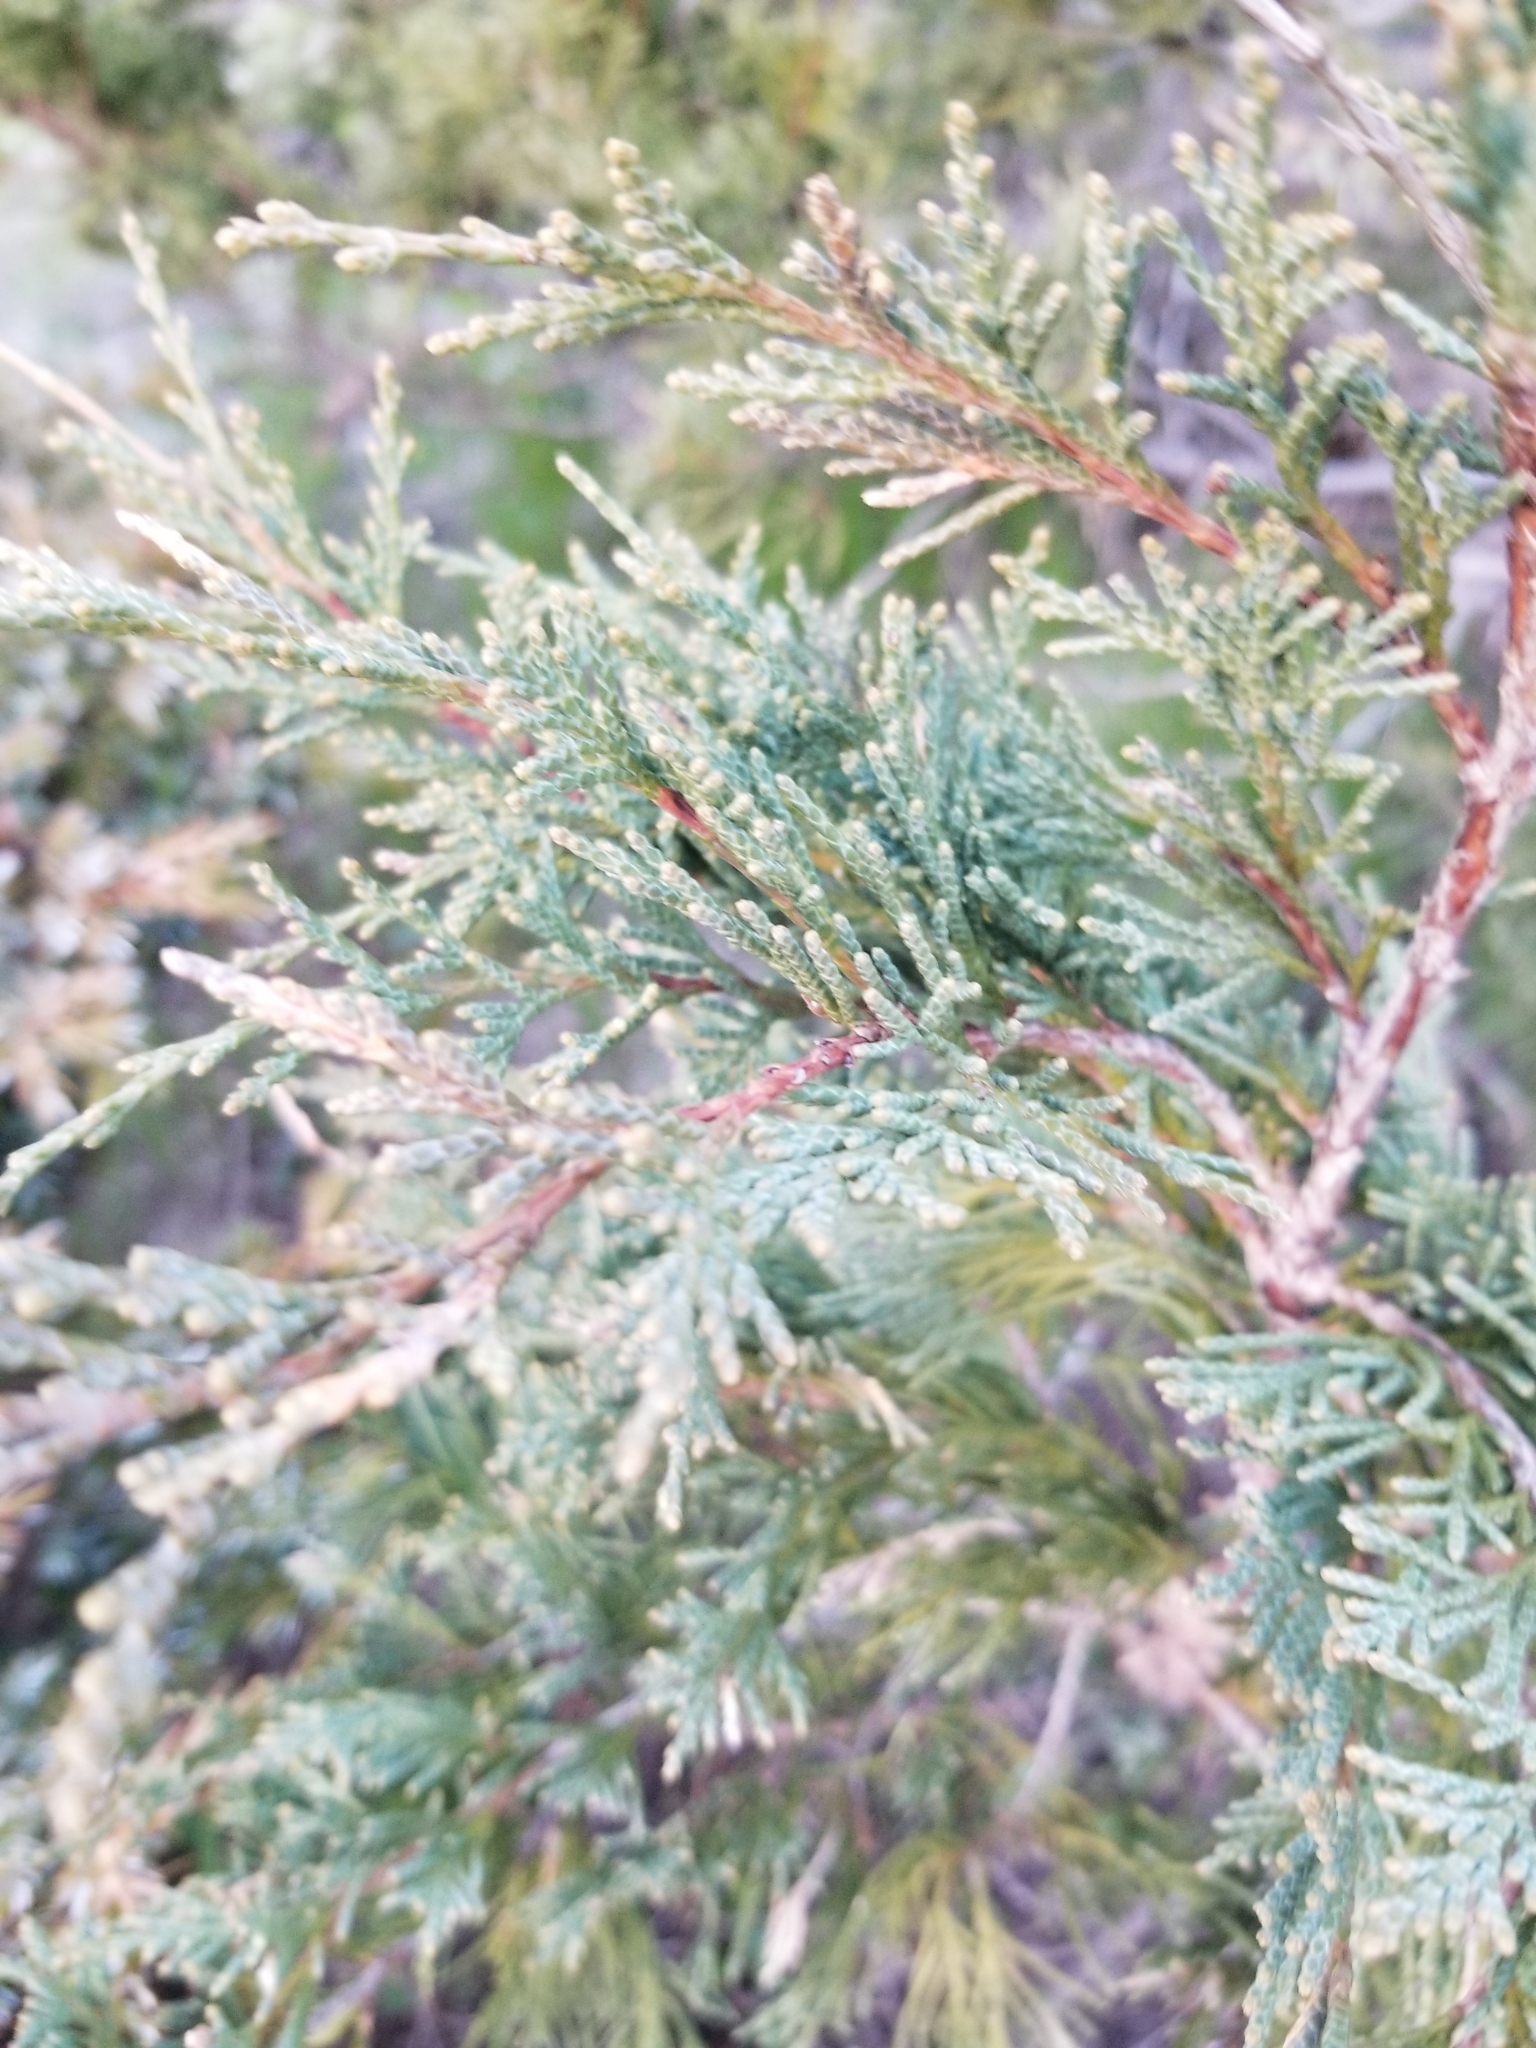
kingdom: Plantae
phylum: Tracheophyta
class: Pinopsida
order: Pinales
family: Cupressaceae
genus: Juniperus
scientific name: Juniperus scopulorum
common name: Rocky mountain juniper
